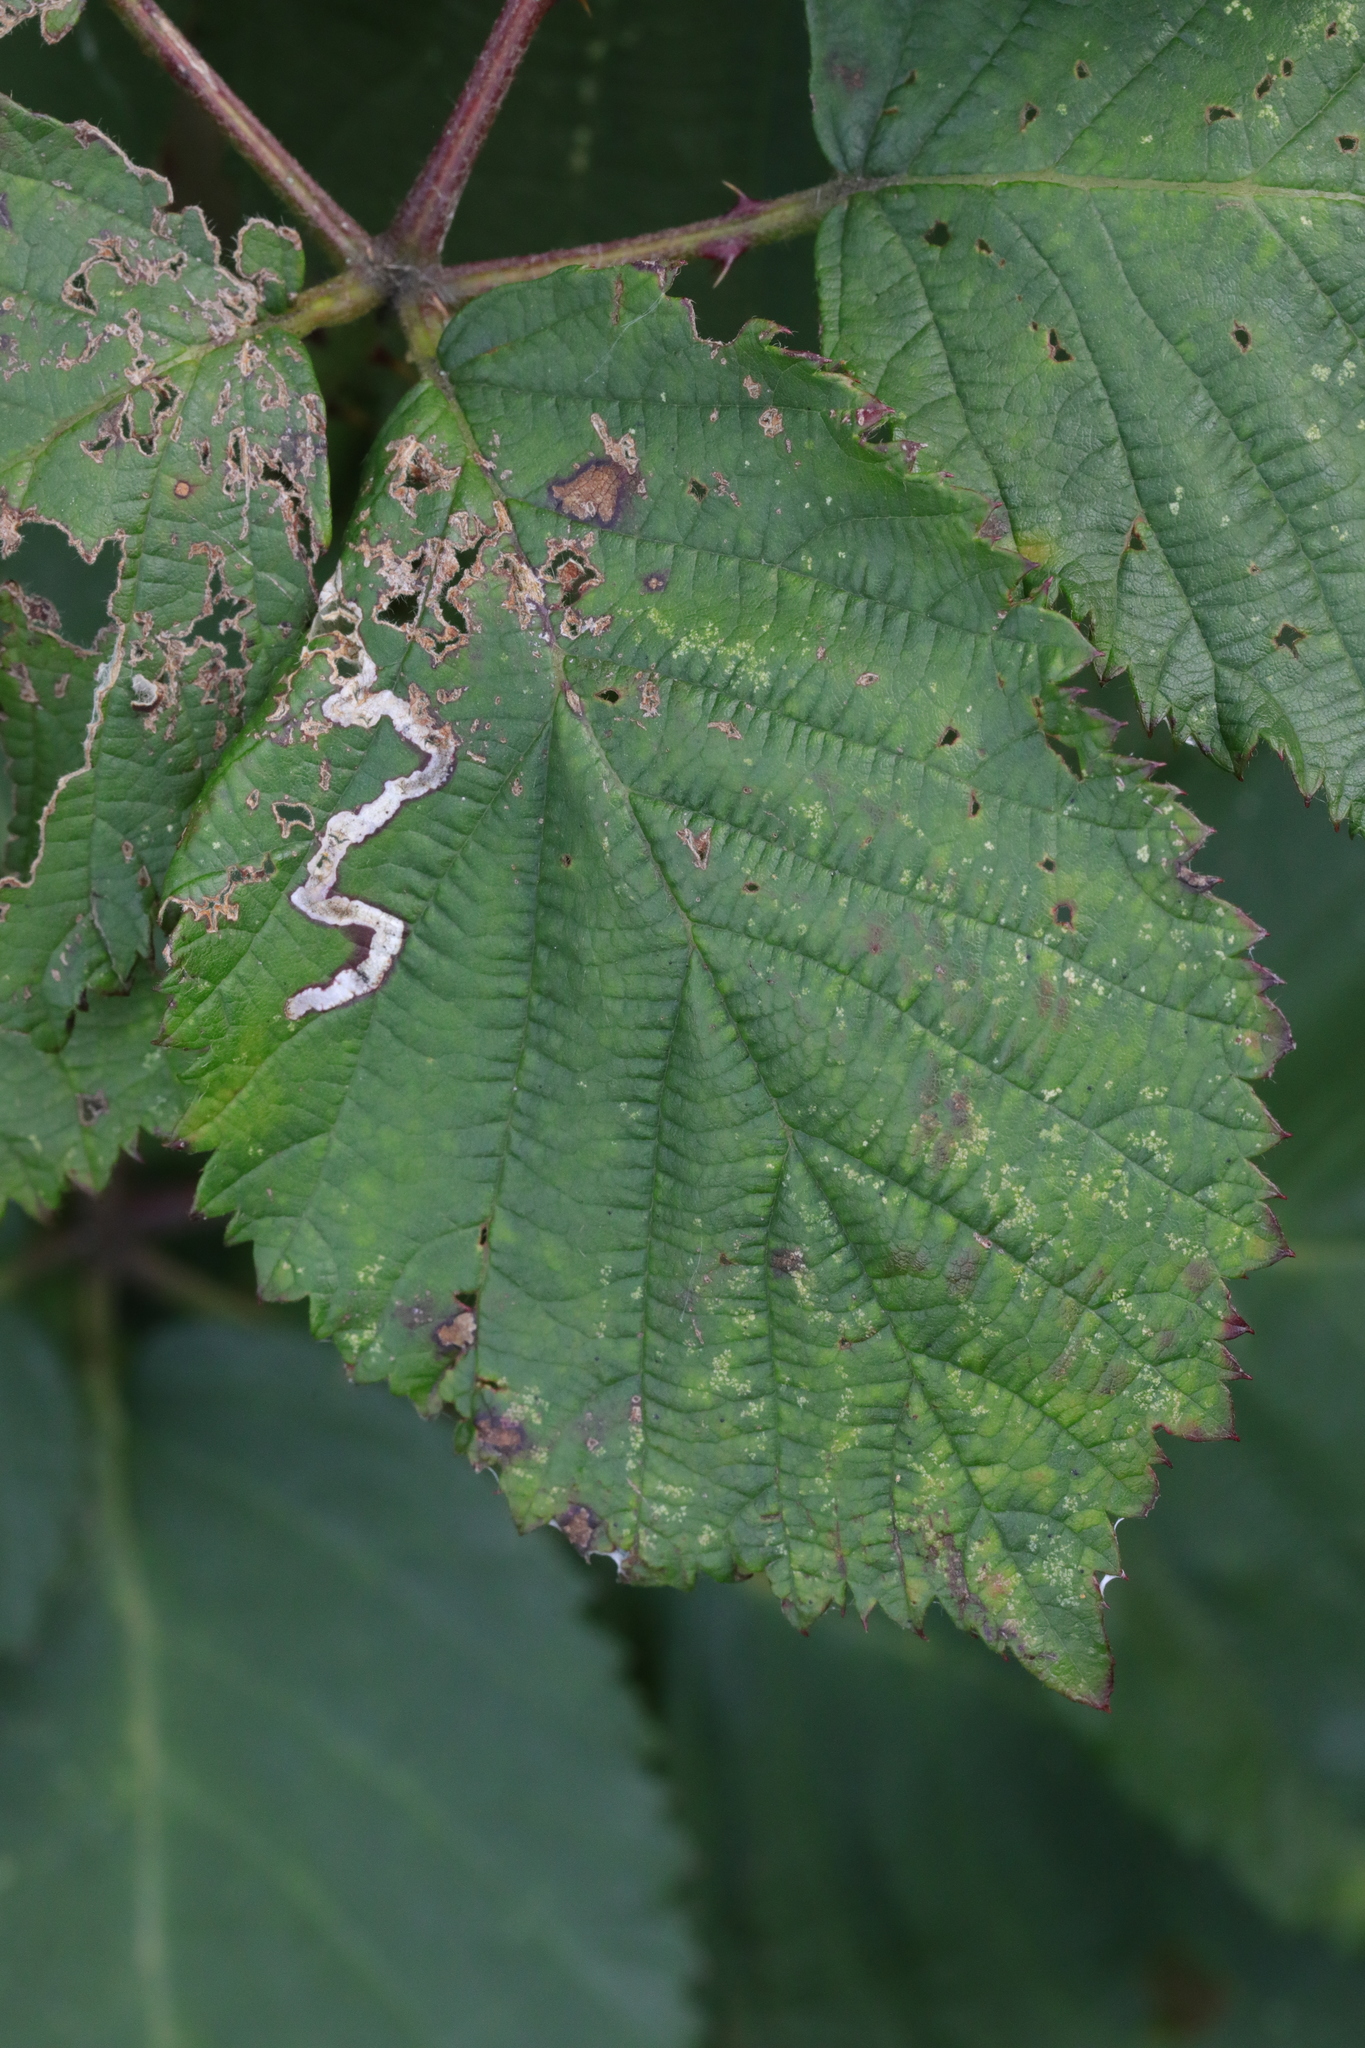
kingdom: Animalia
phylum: Arthropoda
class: Insecta
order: Lepidoptera
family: Nepticulidae
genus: Stigmella
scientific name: Stigmella aurella
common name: Golden pigmy
